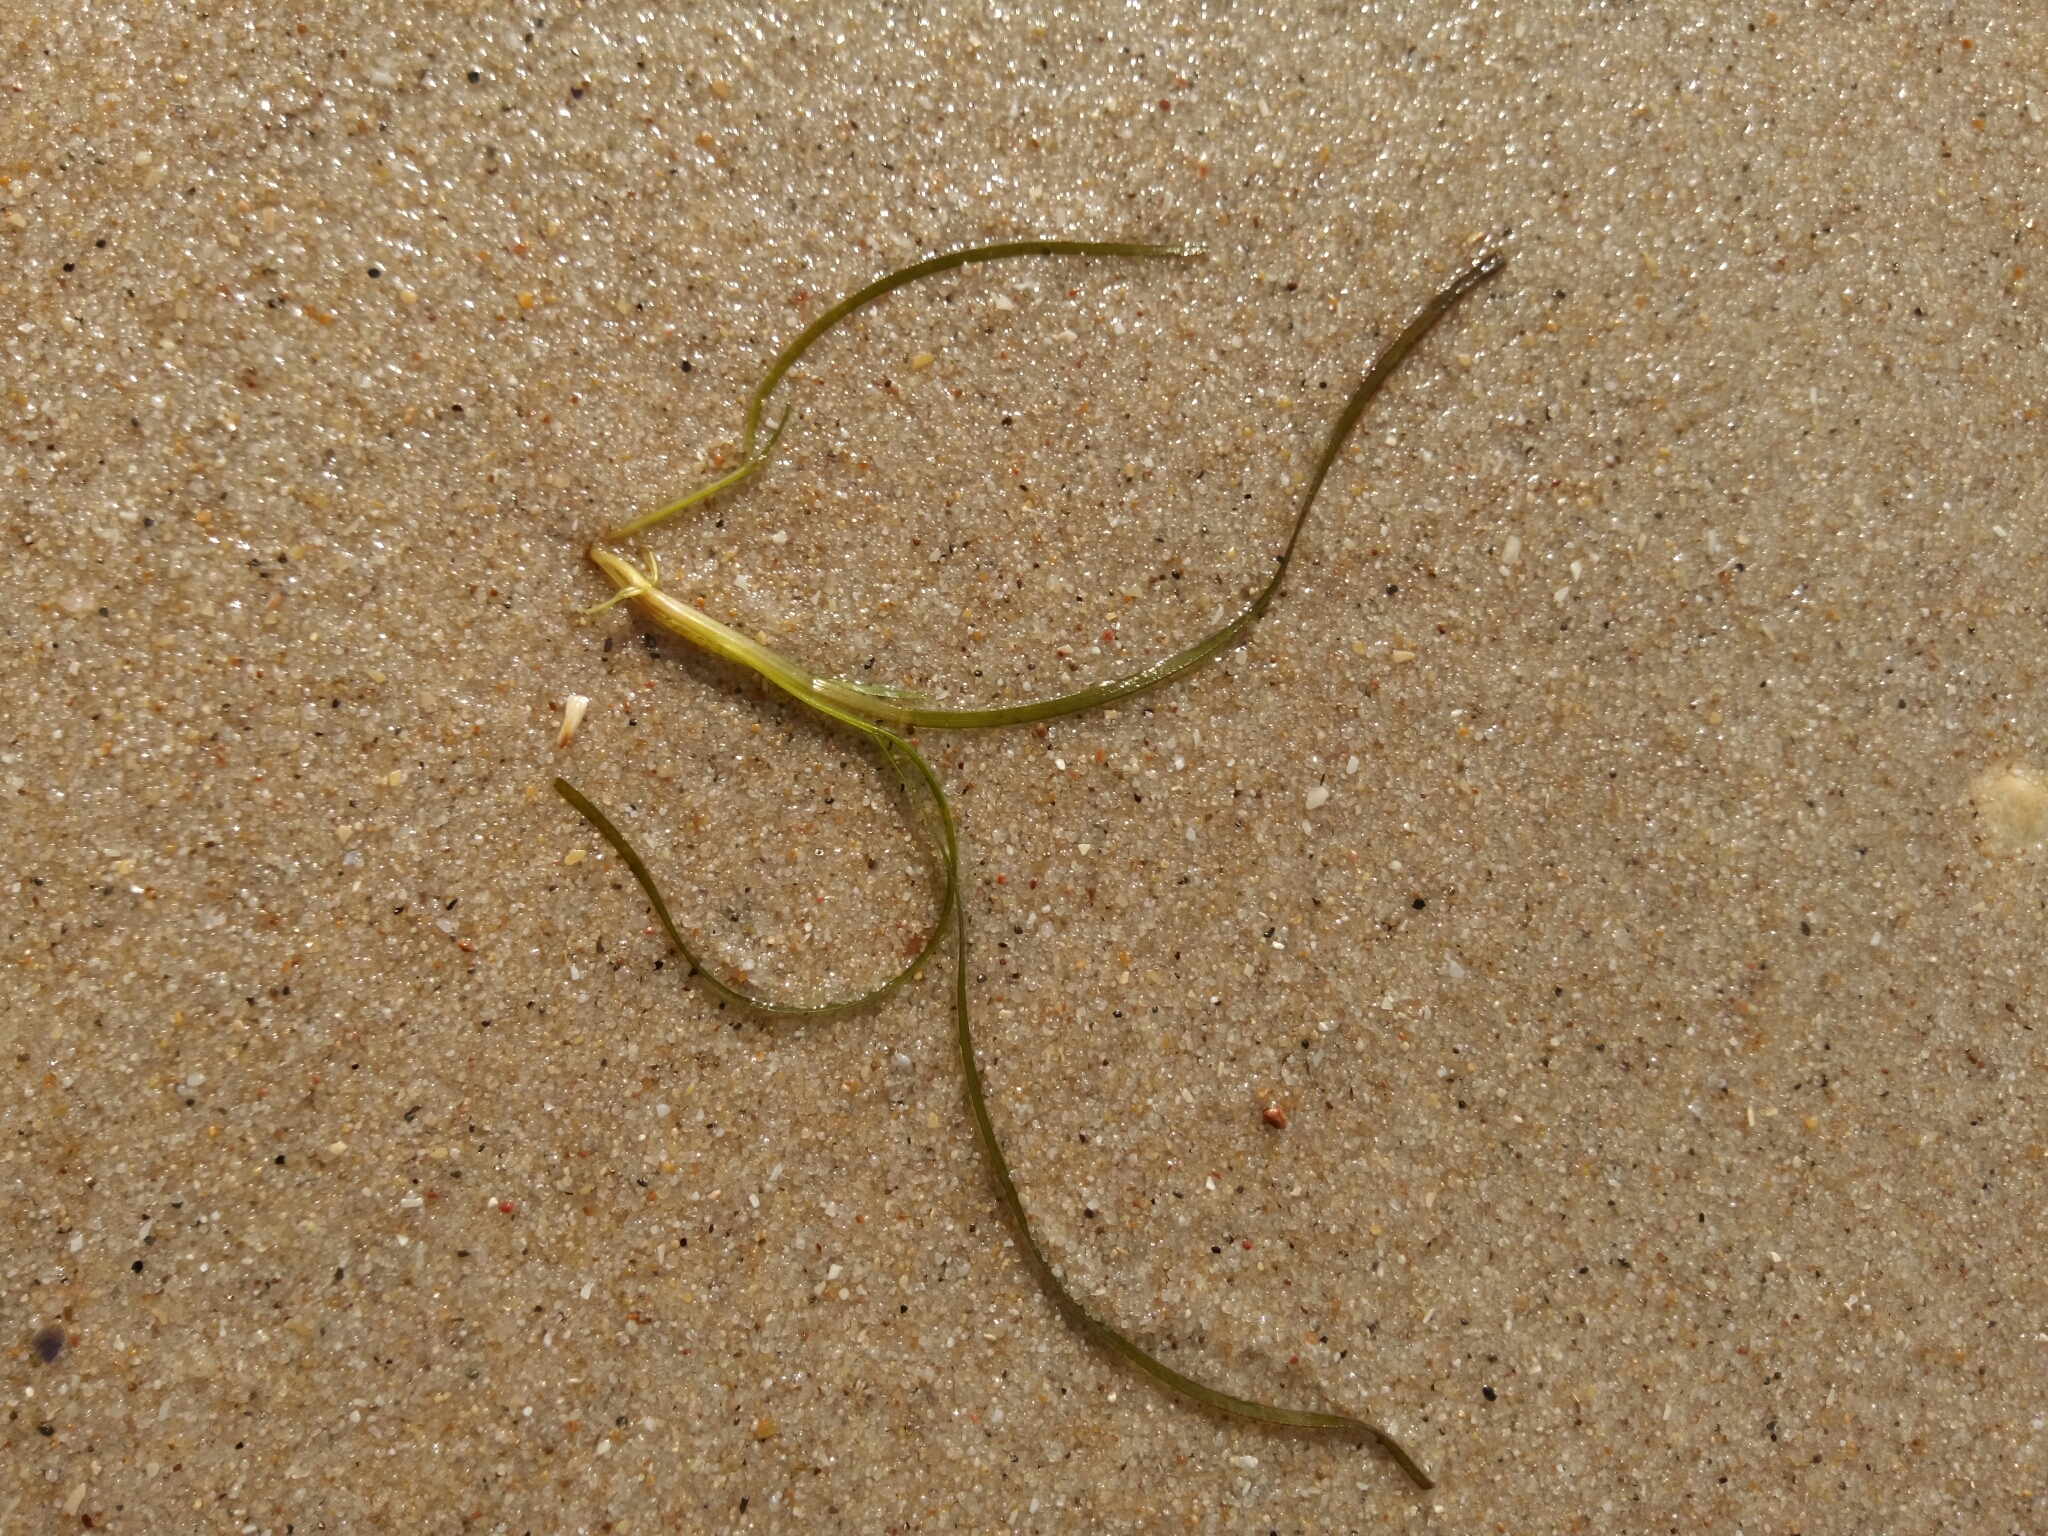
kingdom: Plantae
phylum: Tracheophyta
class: Liliopsida
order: Alismatales
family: Zosteraceae
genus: Zostera
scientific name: Zostera noltii
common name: Dwarf eelgrass
